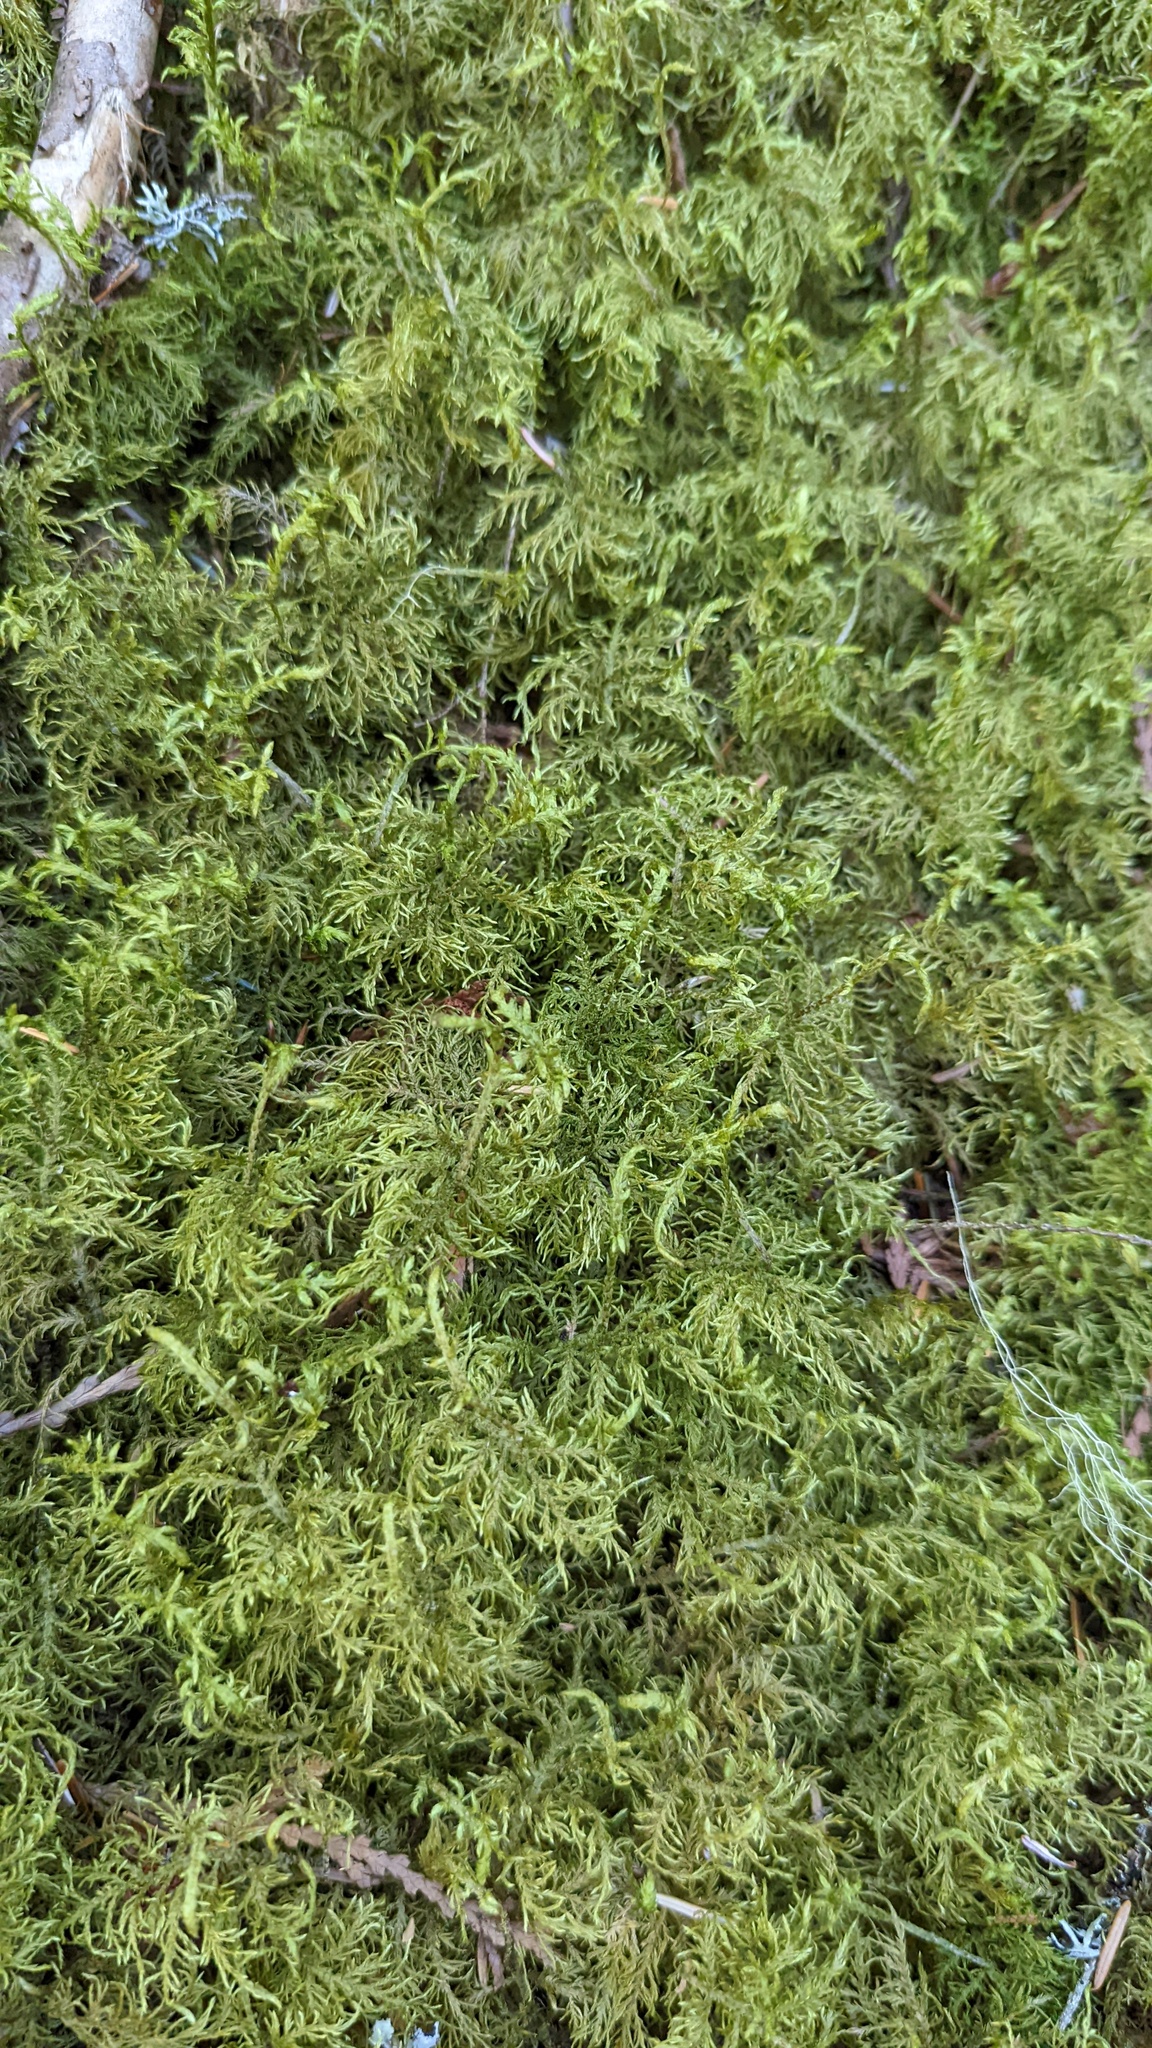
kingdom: Plantae
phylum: Bryophyta
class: Bryopsida
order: Hypnales
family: Hylocomiaceae
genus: Hylocomium
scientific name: Hylocomium splendens
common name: Stairstep moss
